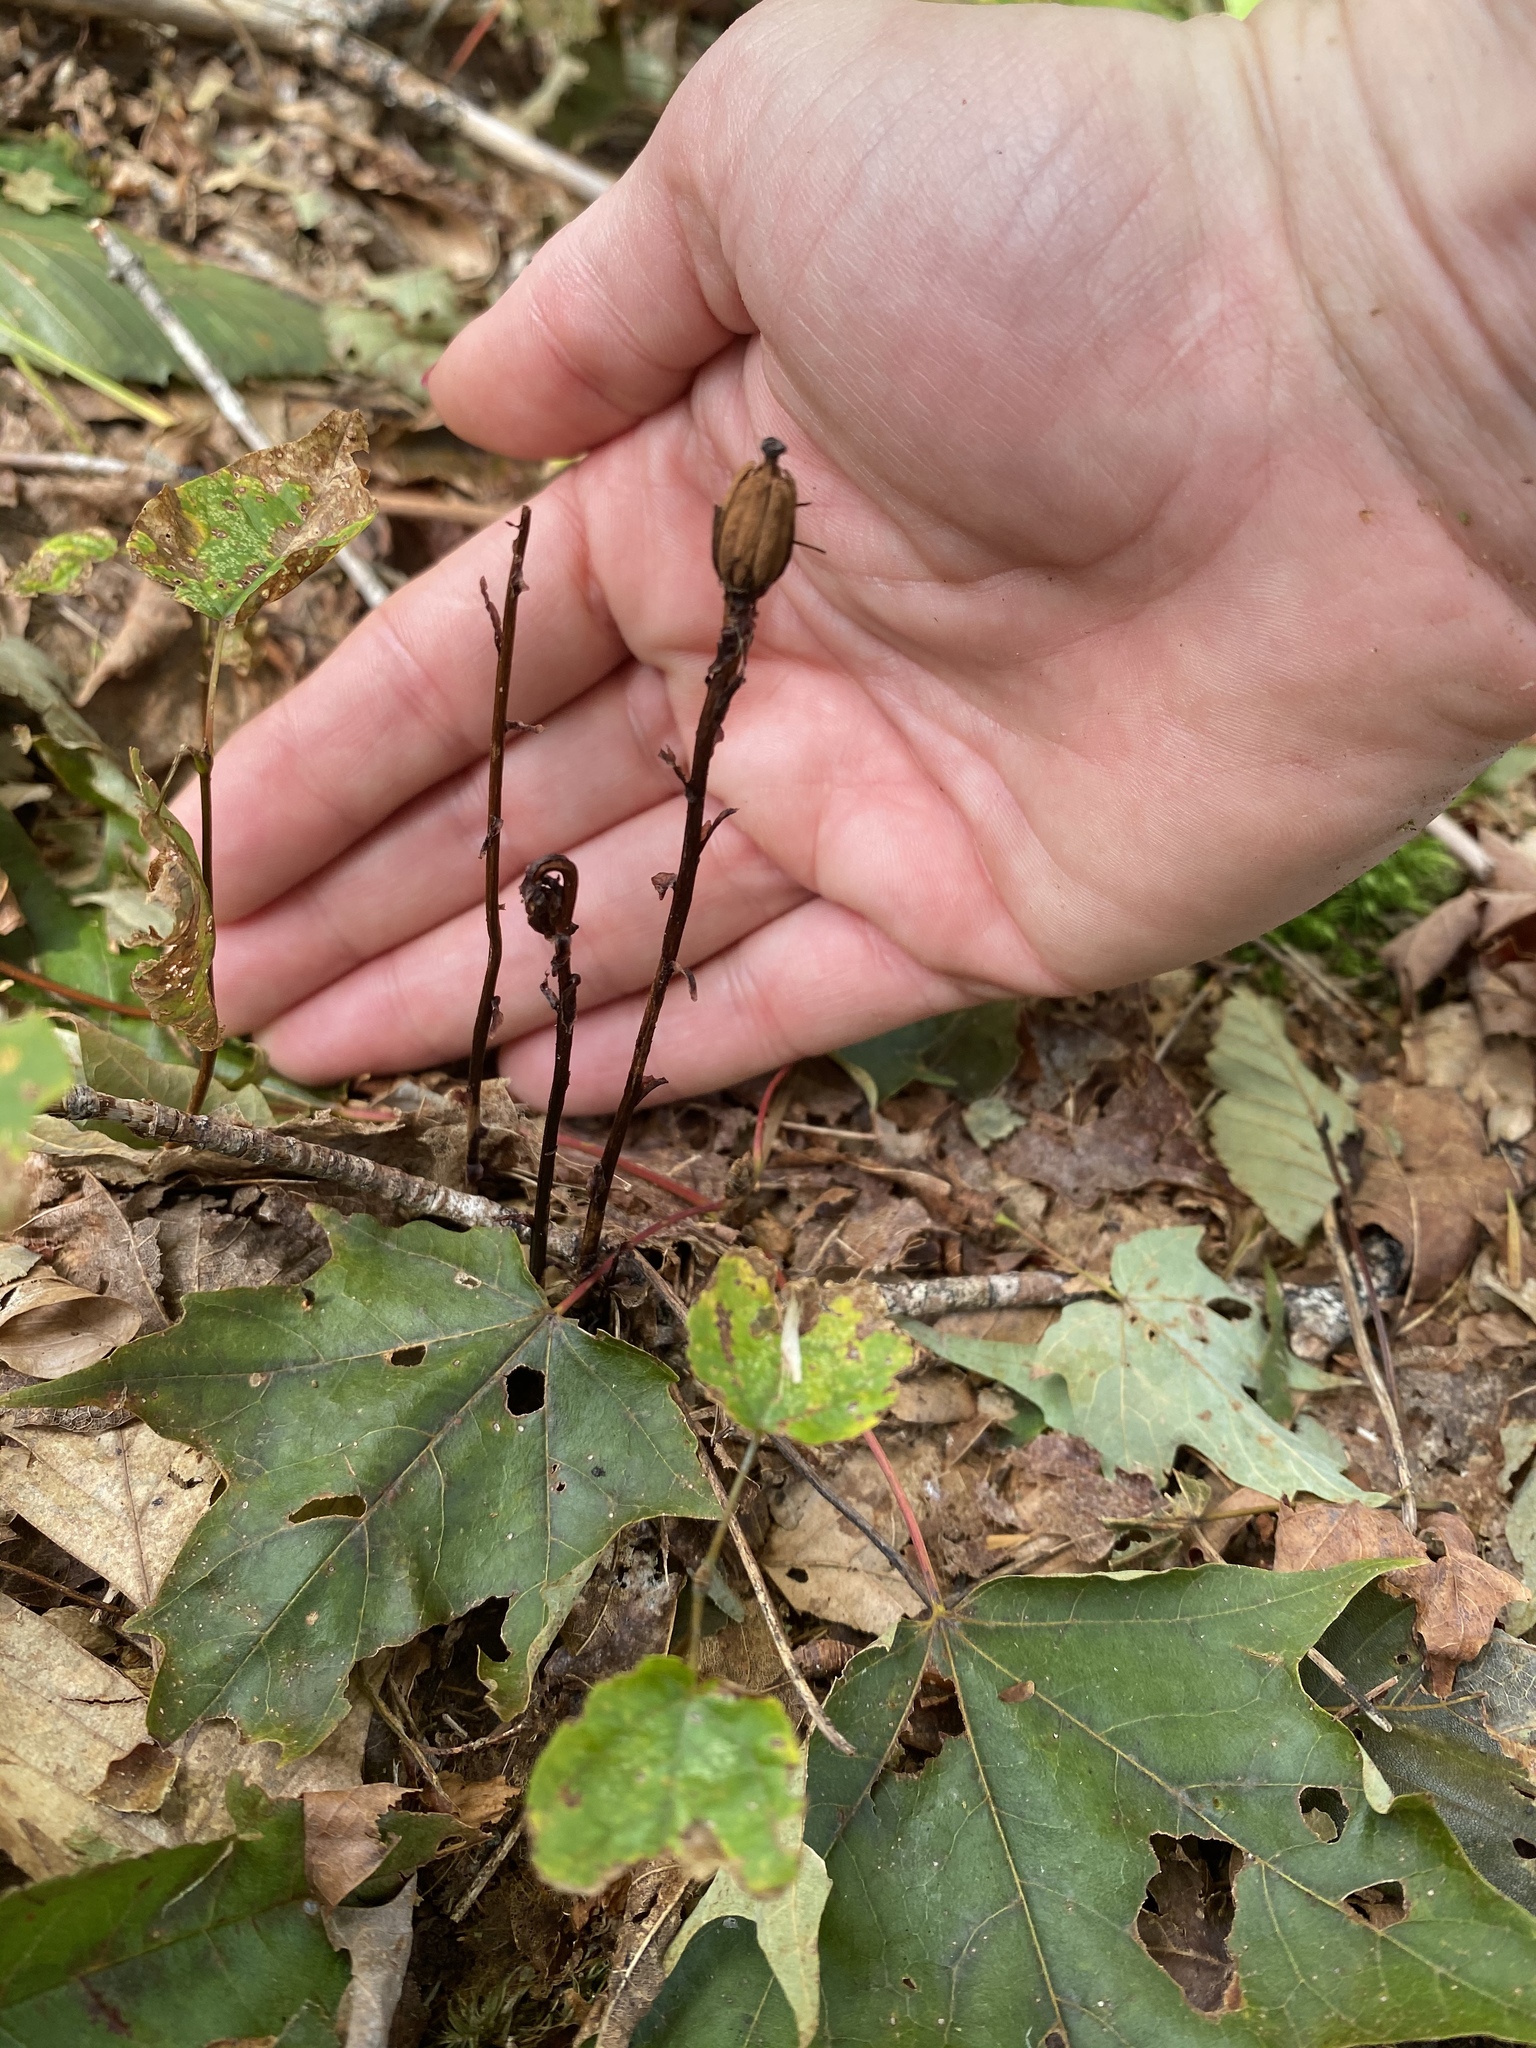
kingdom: Plantae
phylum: Tracheophyta
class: Magnoliopsida
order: Ericales
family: Ericaceae
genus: Monotropa
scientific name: Monotropa uniflora
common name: Convulsion root
